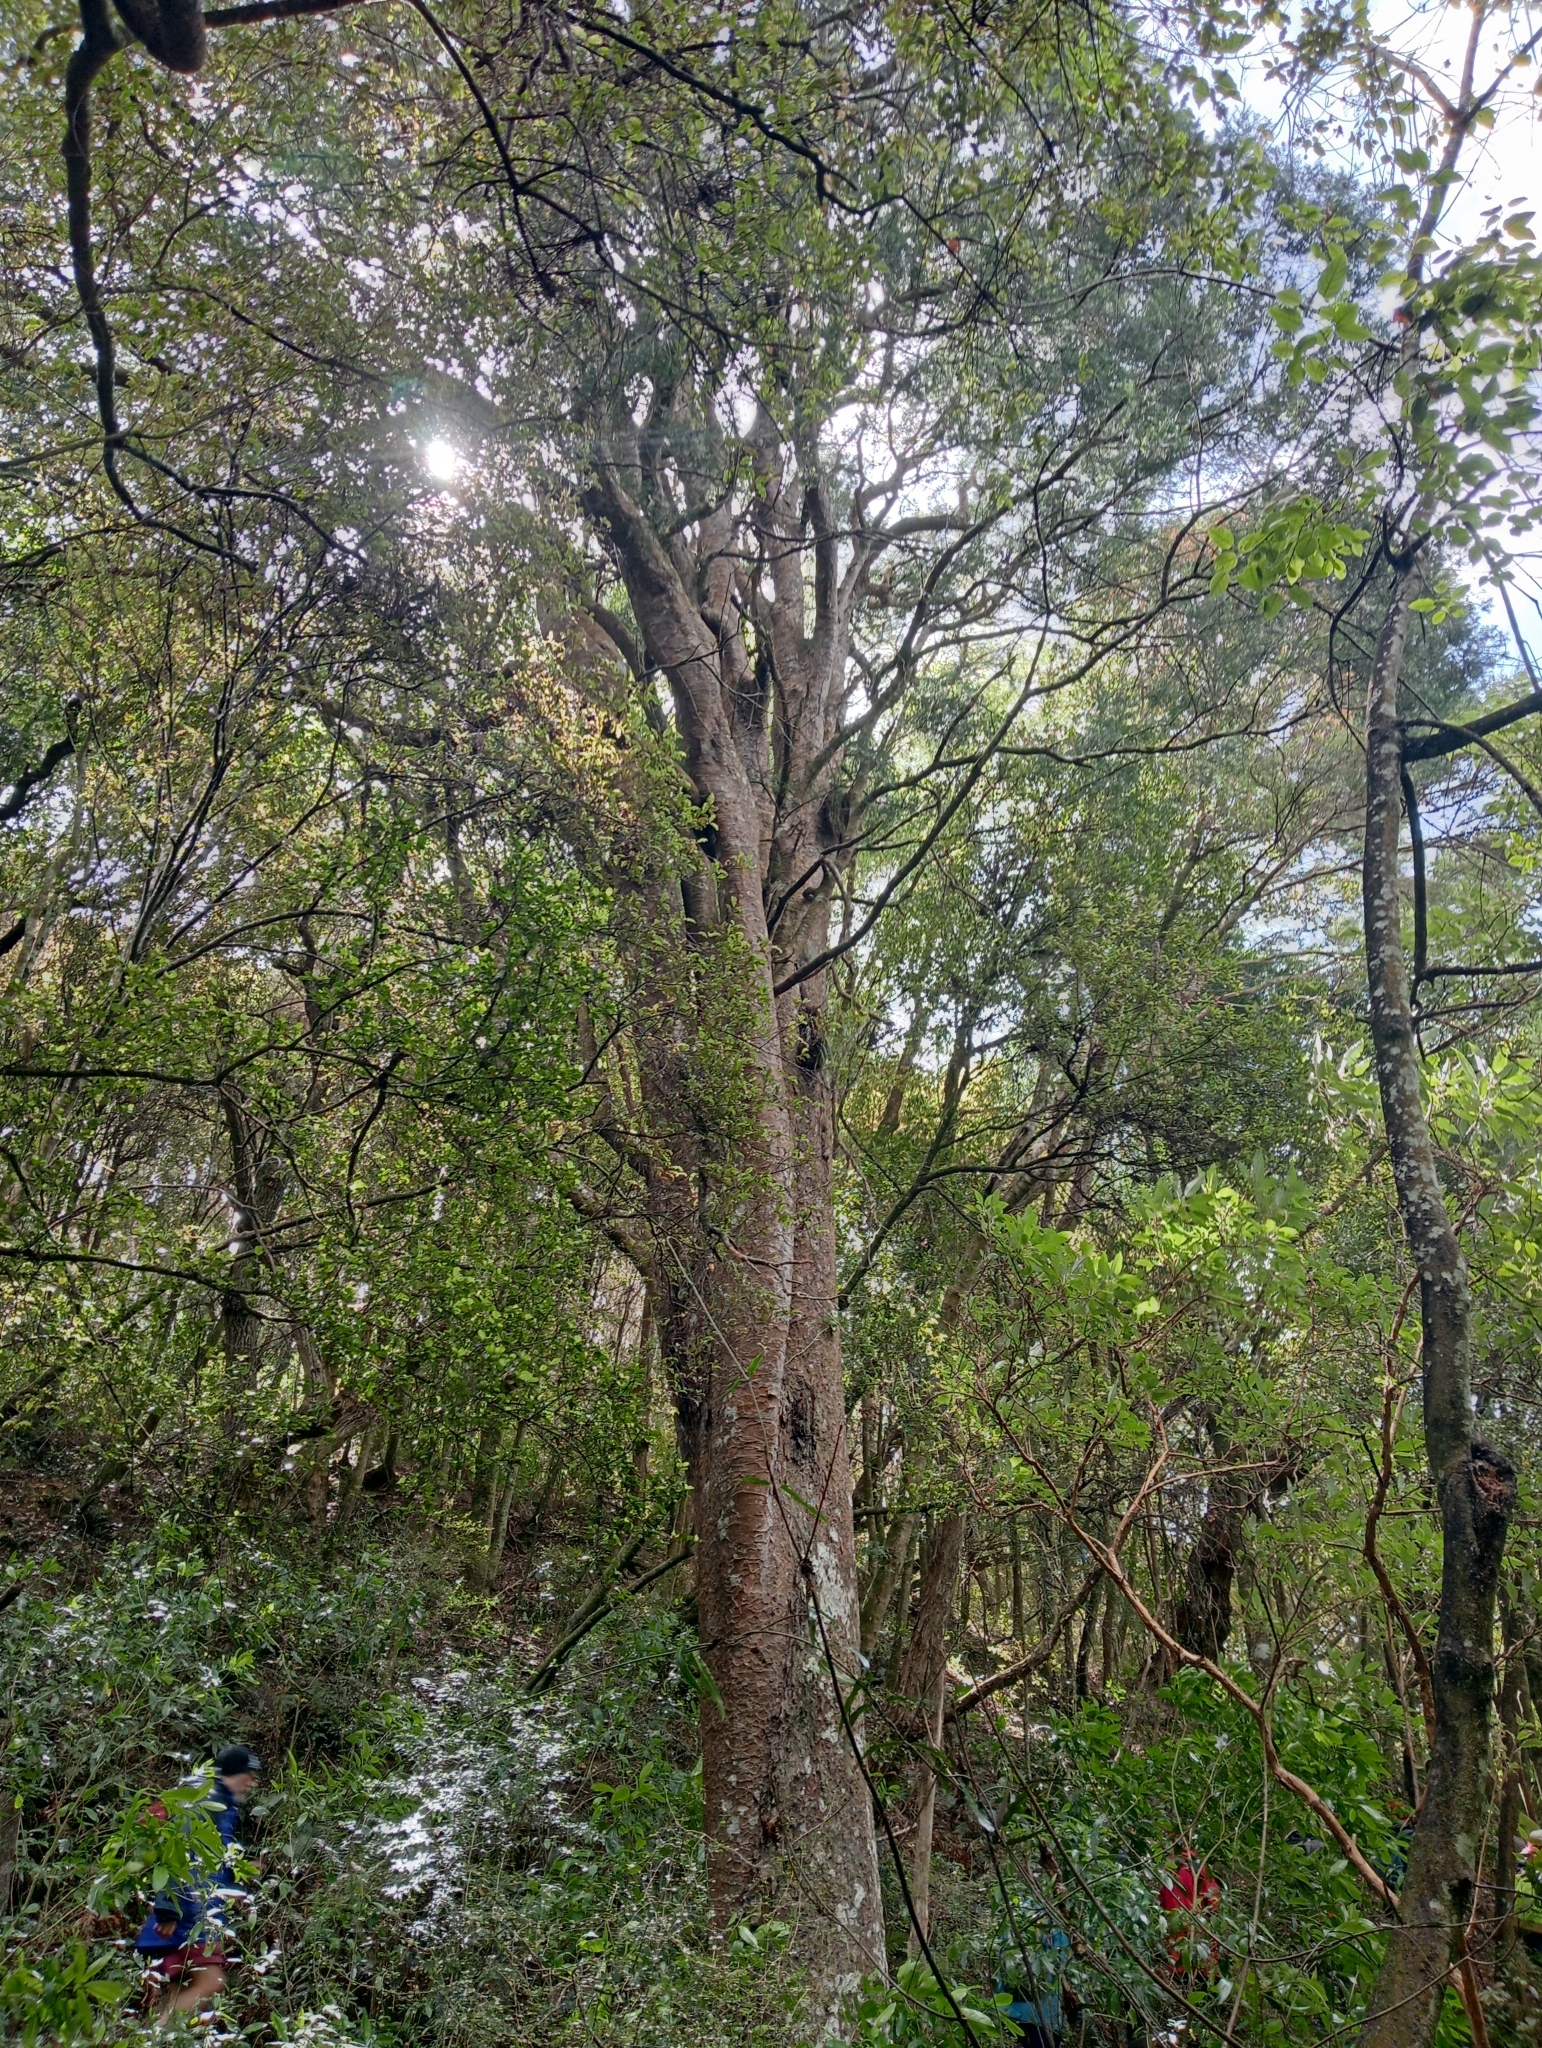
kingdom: Plantae
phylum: Tracheophyta
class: Pinopsida
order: Pinales
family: Podocarpaceae
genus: Prumnopitys
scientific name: Prumnopitys taxifolia
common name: Matai
